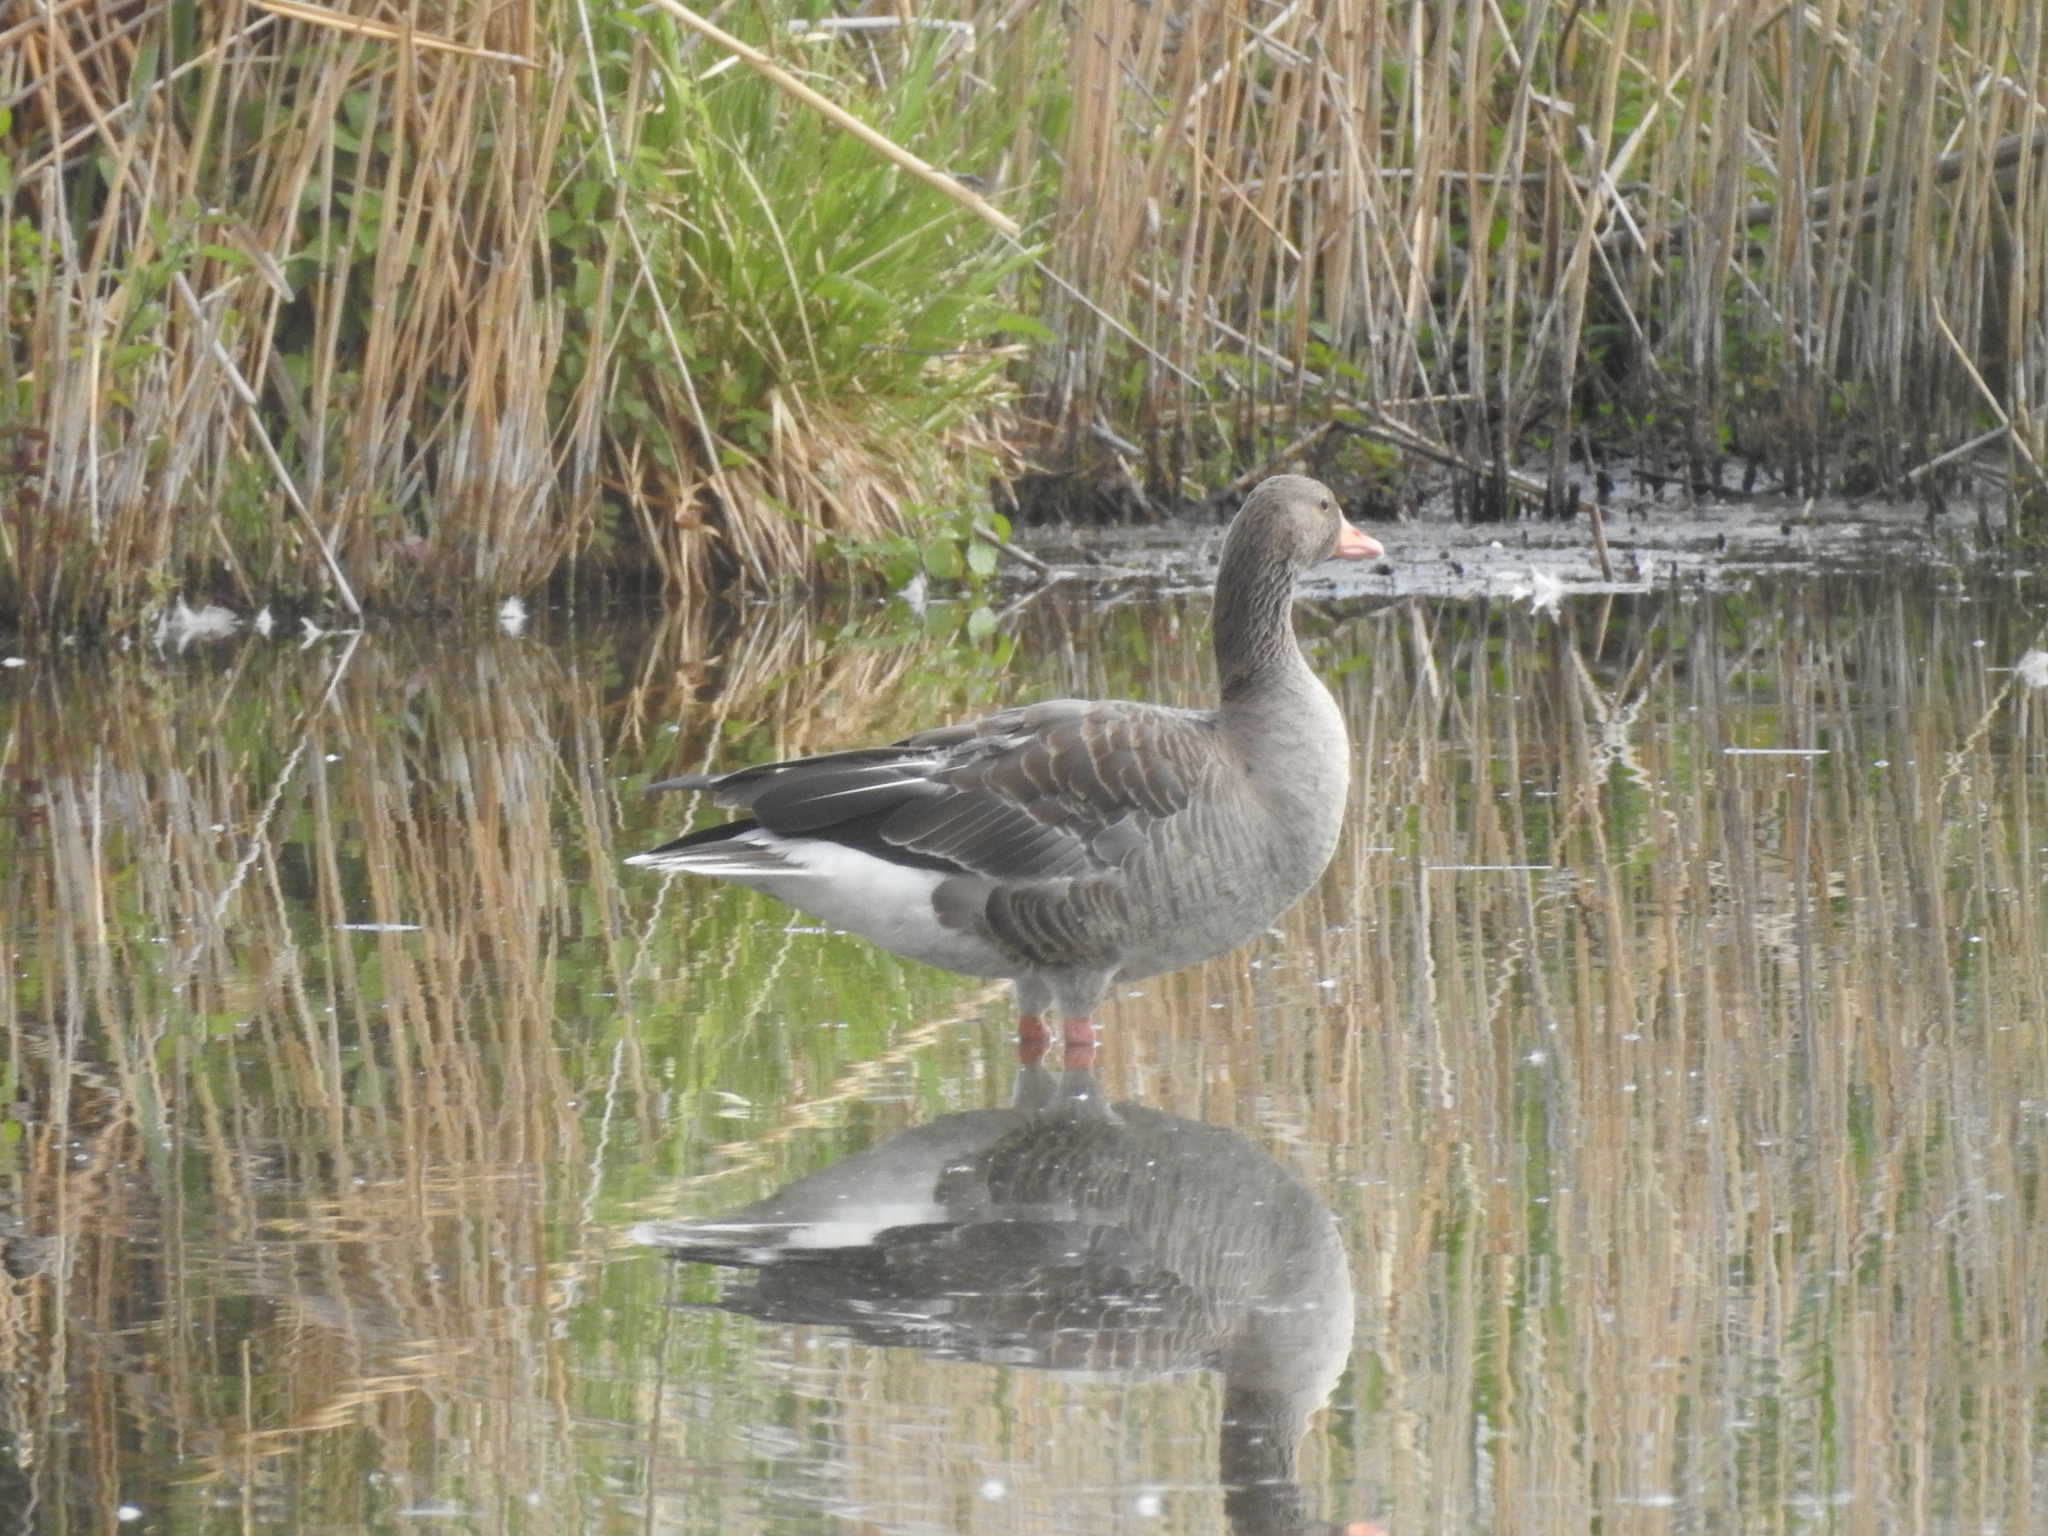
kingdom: Animalia
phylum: Chordata
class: Aves
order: Anseriformes
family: Anatidae
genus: Anser
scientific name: Anser anser
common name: Greylag goose
